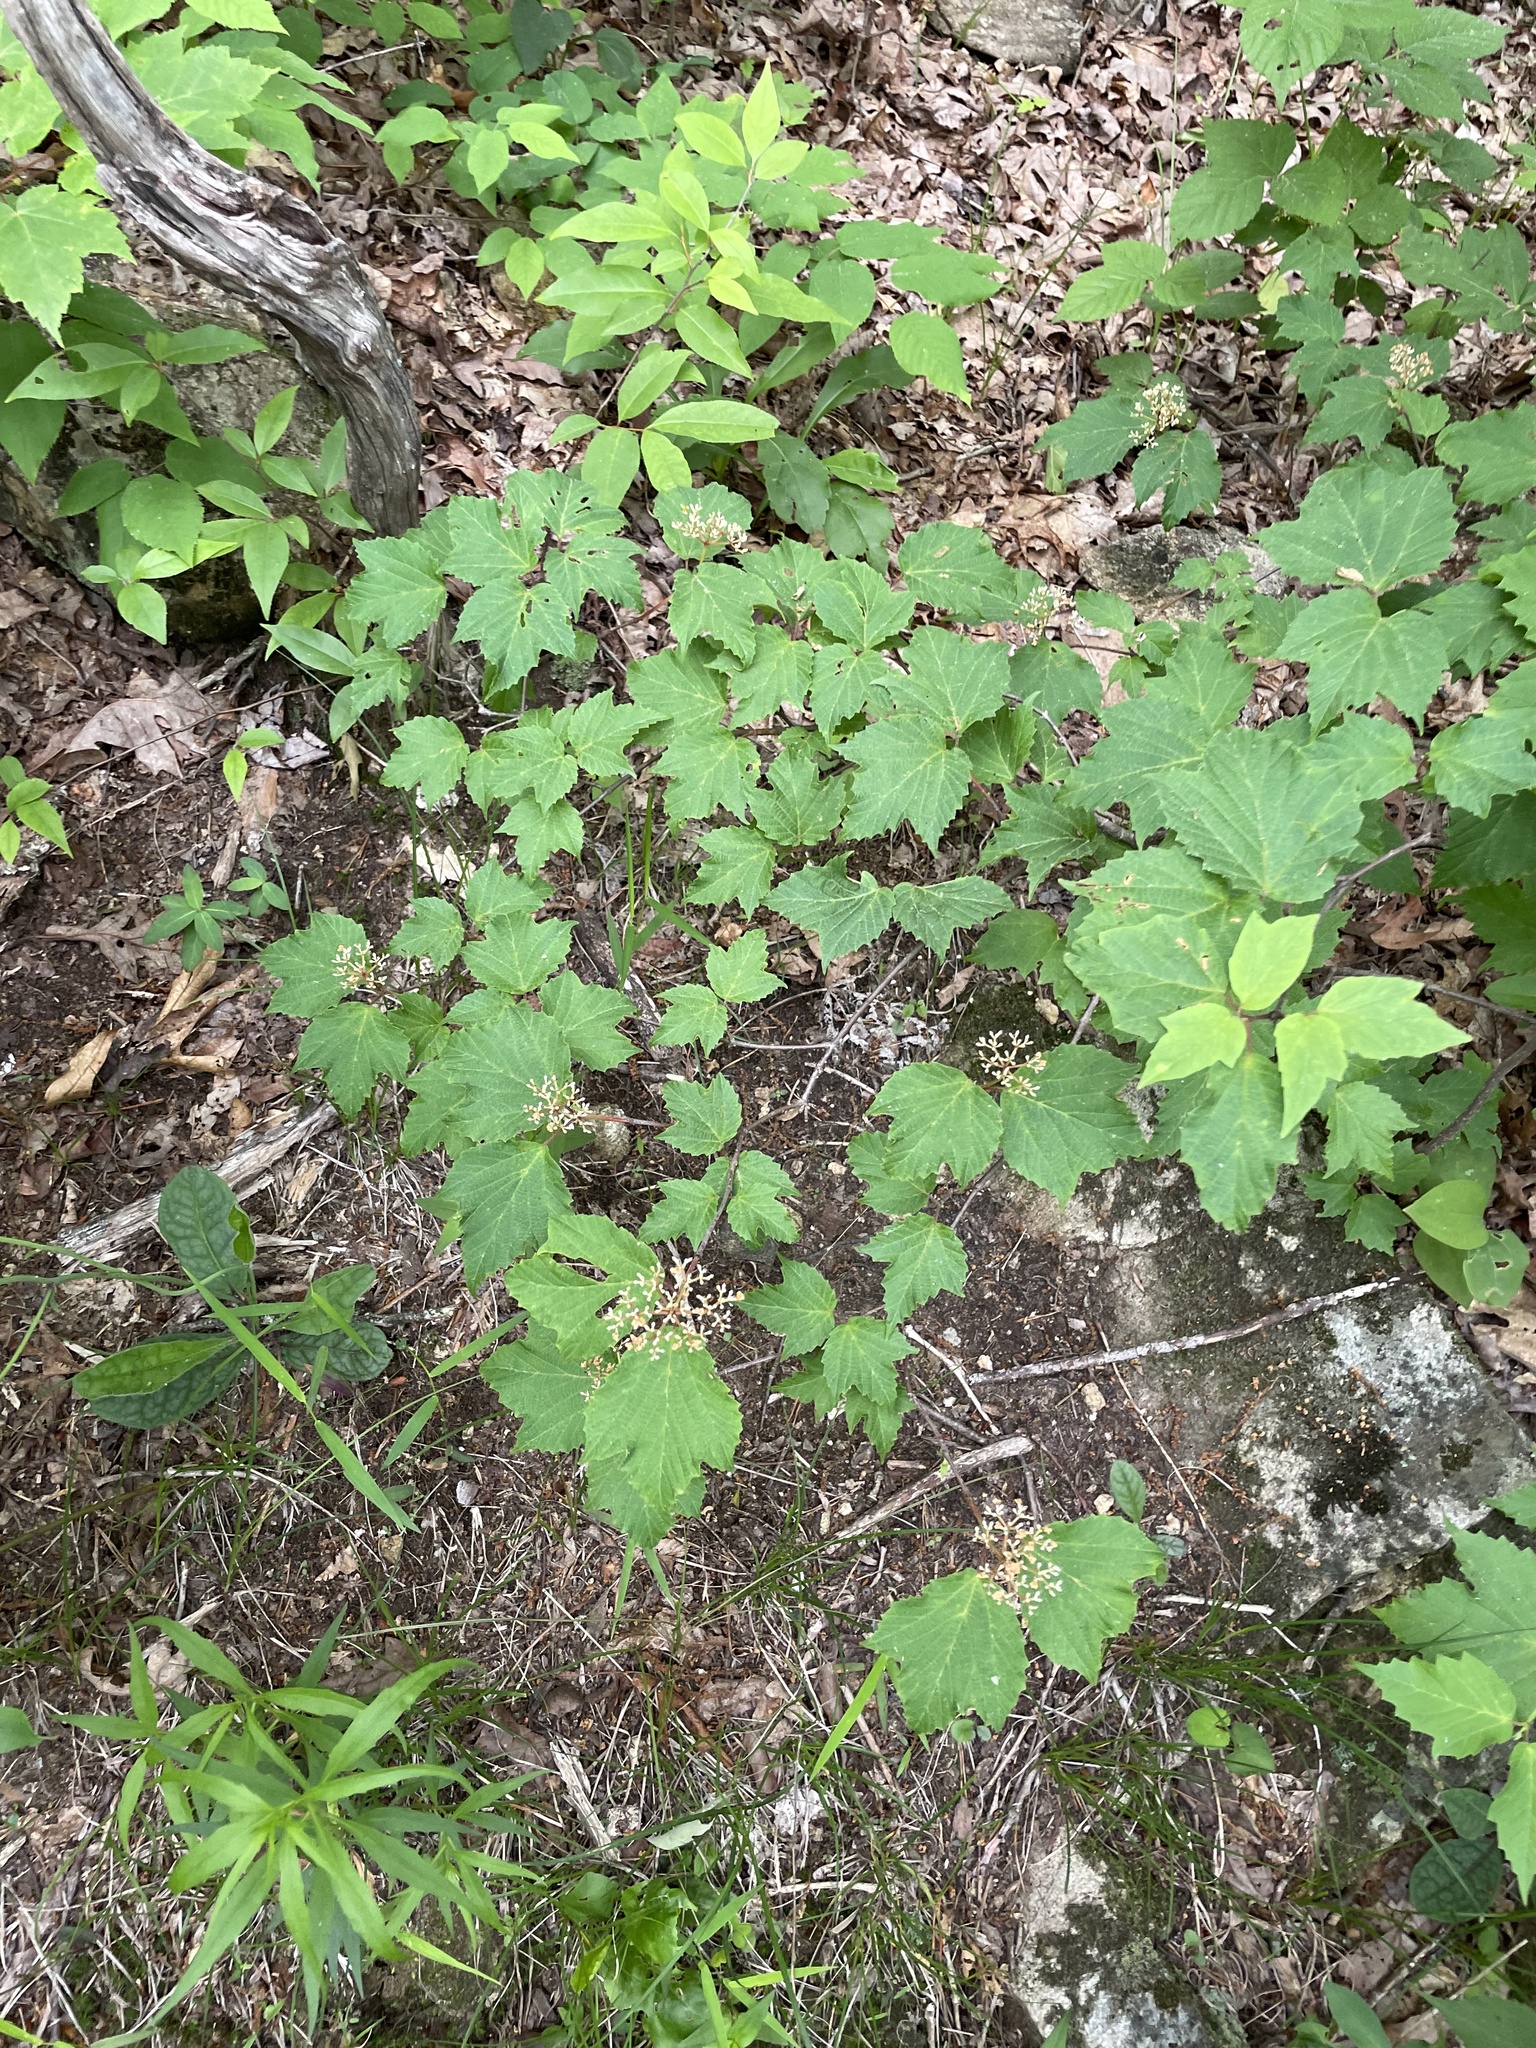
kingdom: Plantae
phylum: Tracheophyta
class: Magnoliopsida
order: Dipsacales
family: Viburnaceae
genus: Viburnum
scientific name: Viburnum acerifolium
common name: Dockmackie
